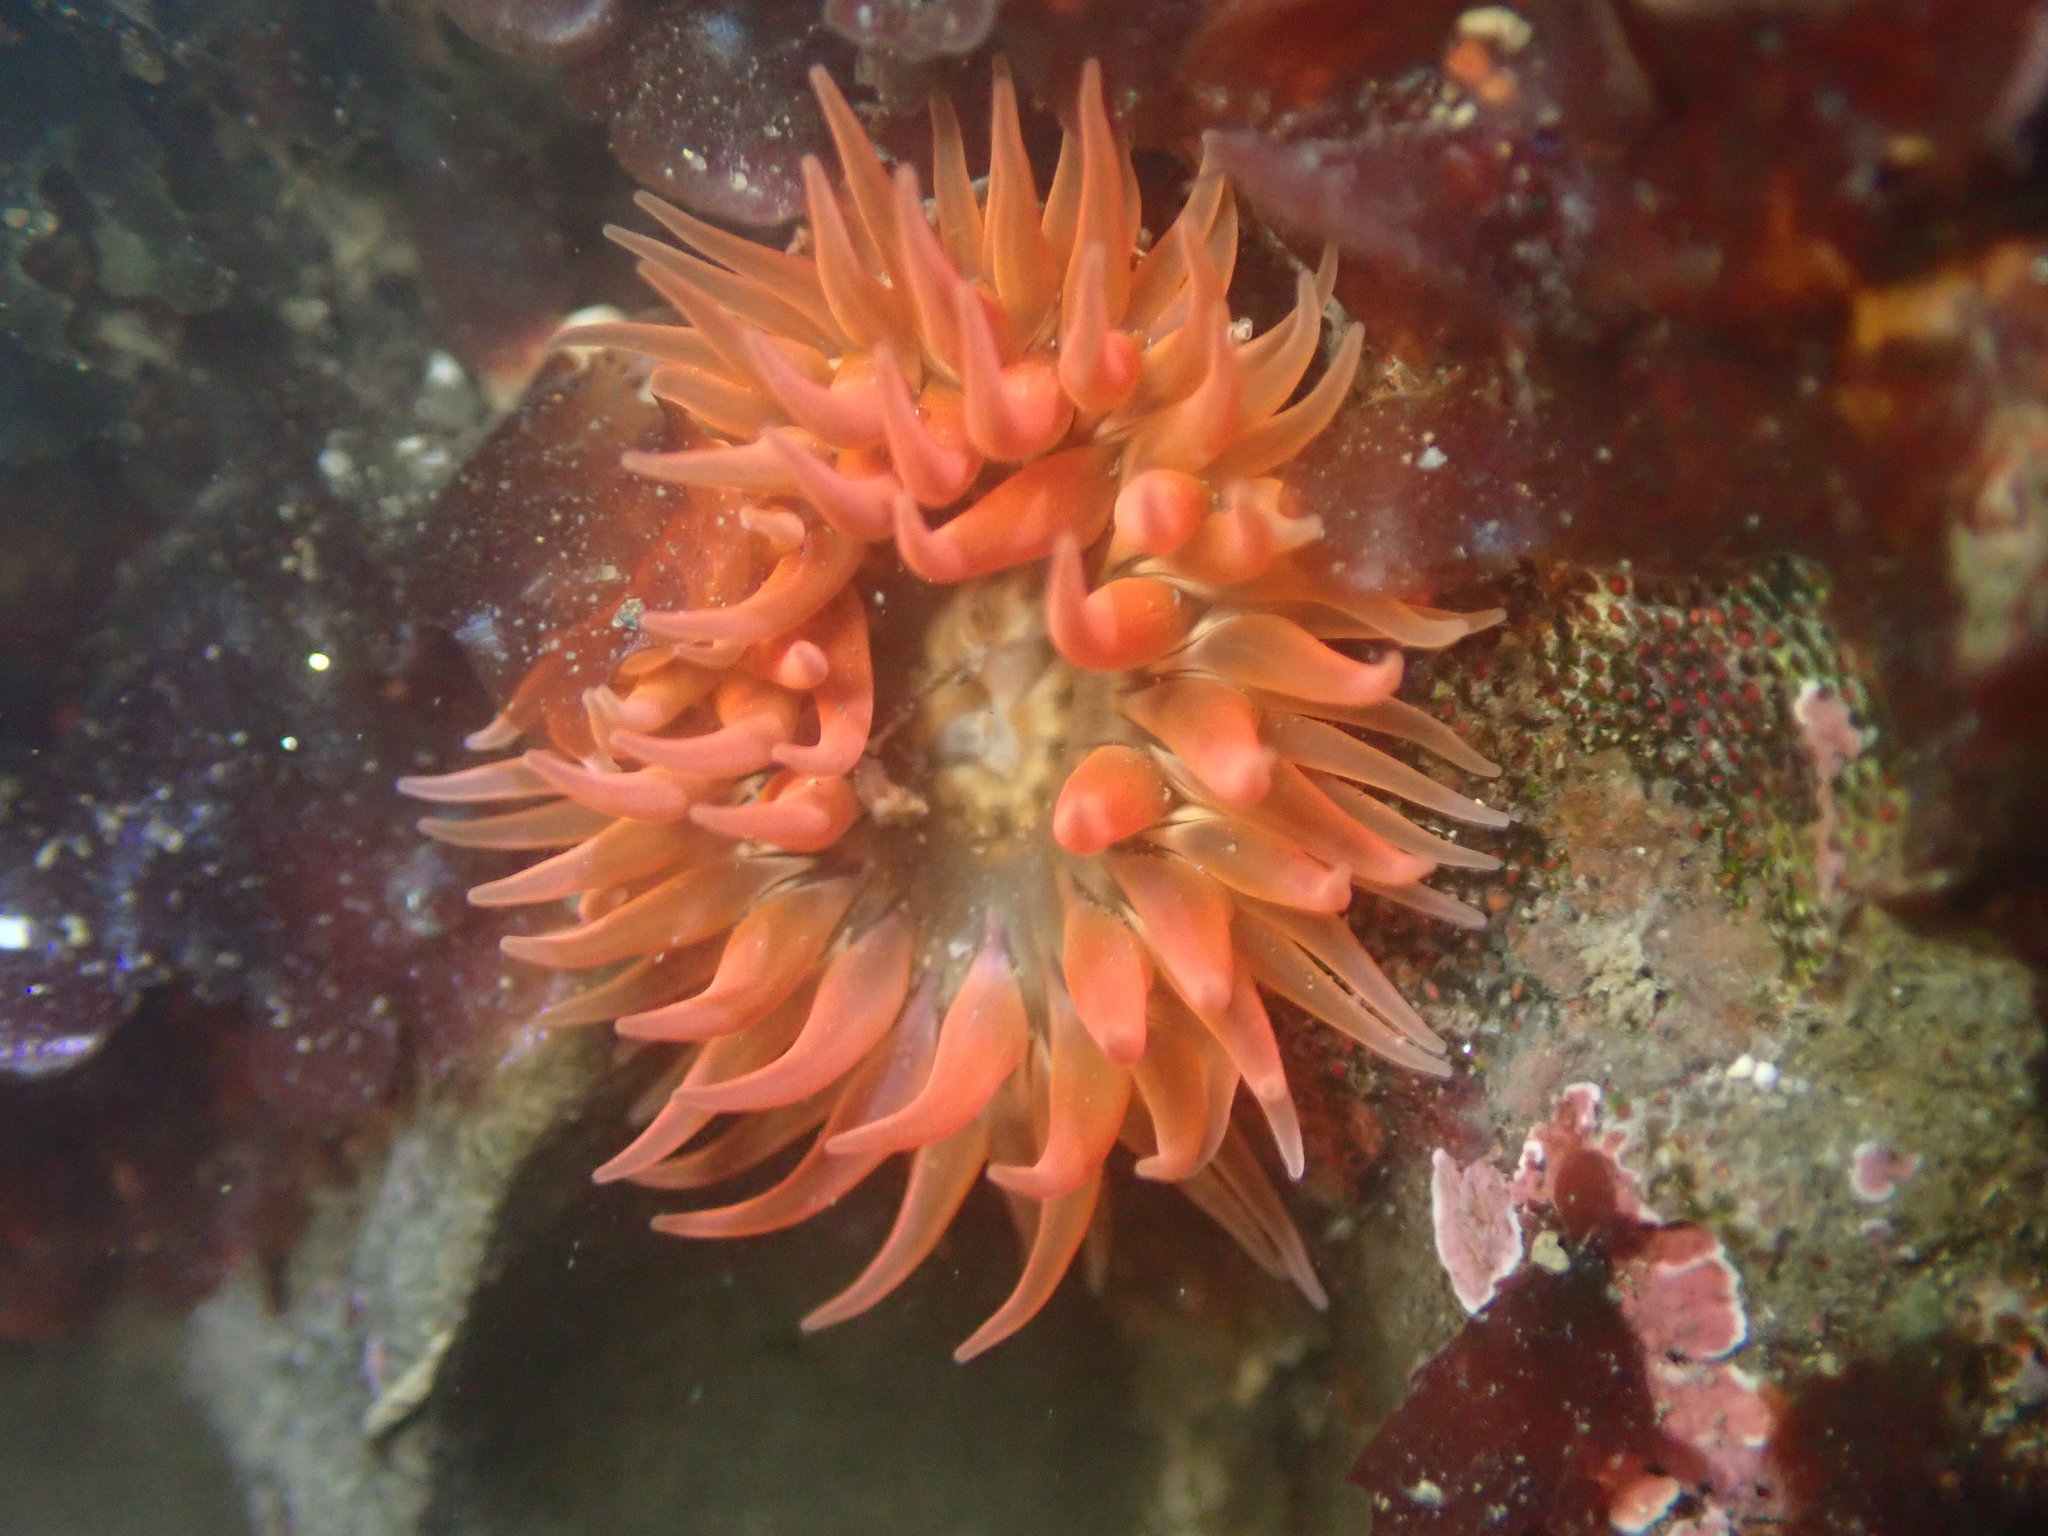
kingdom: Animalia
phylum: Cnidaria
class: Anthozoa
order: Actiniaria
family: Actiniidae
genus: Anthopleura
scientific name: Anthopleura artemisia
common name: Buried sea anemone
